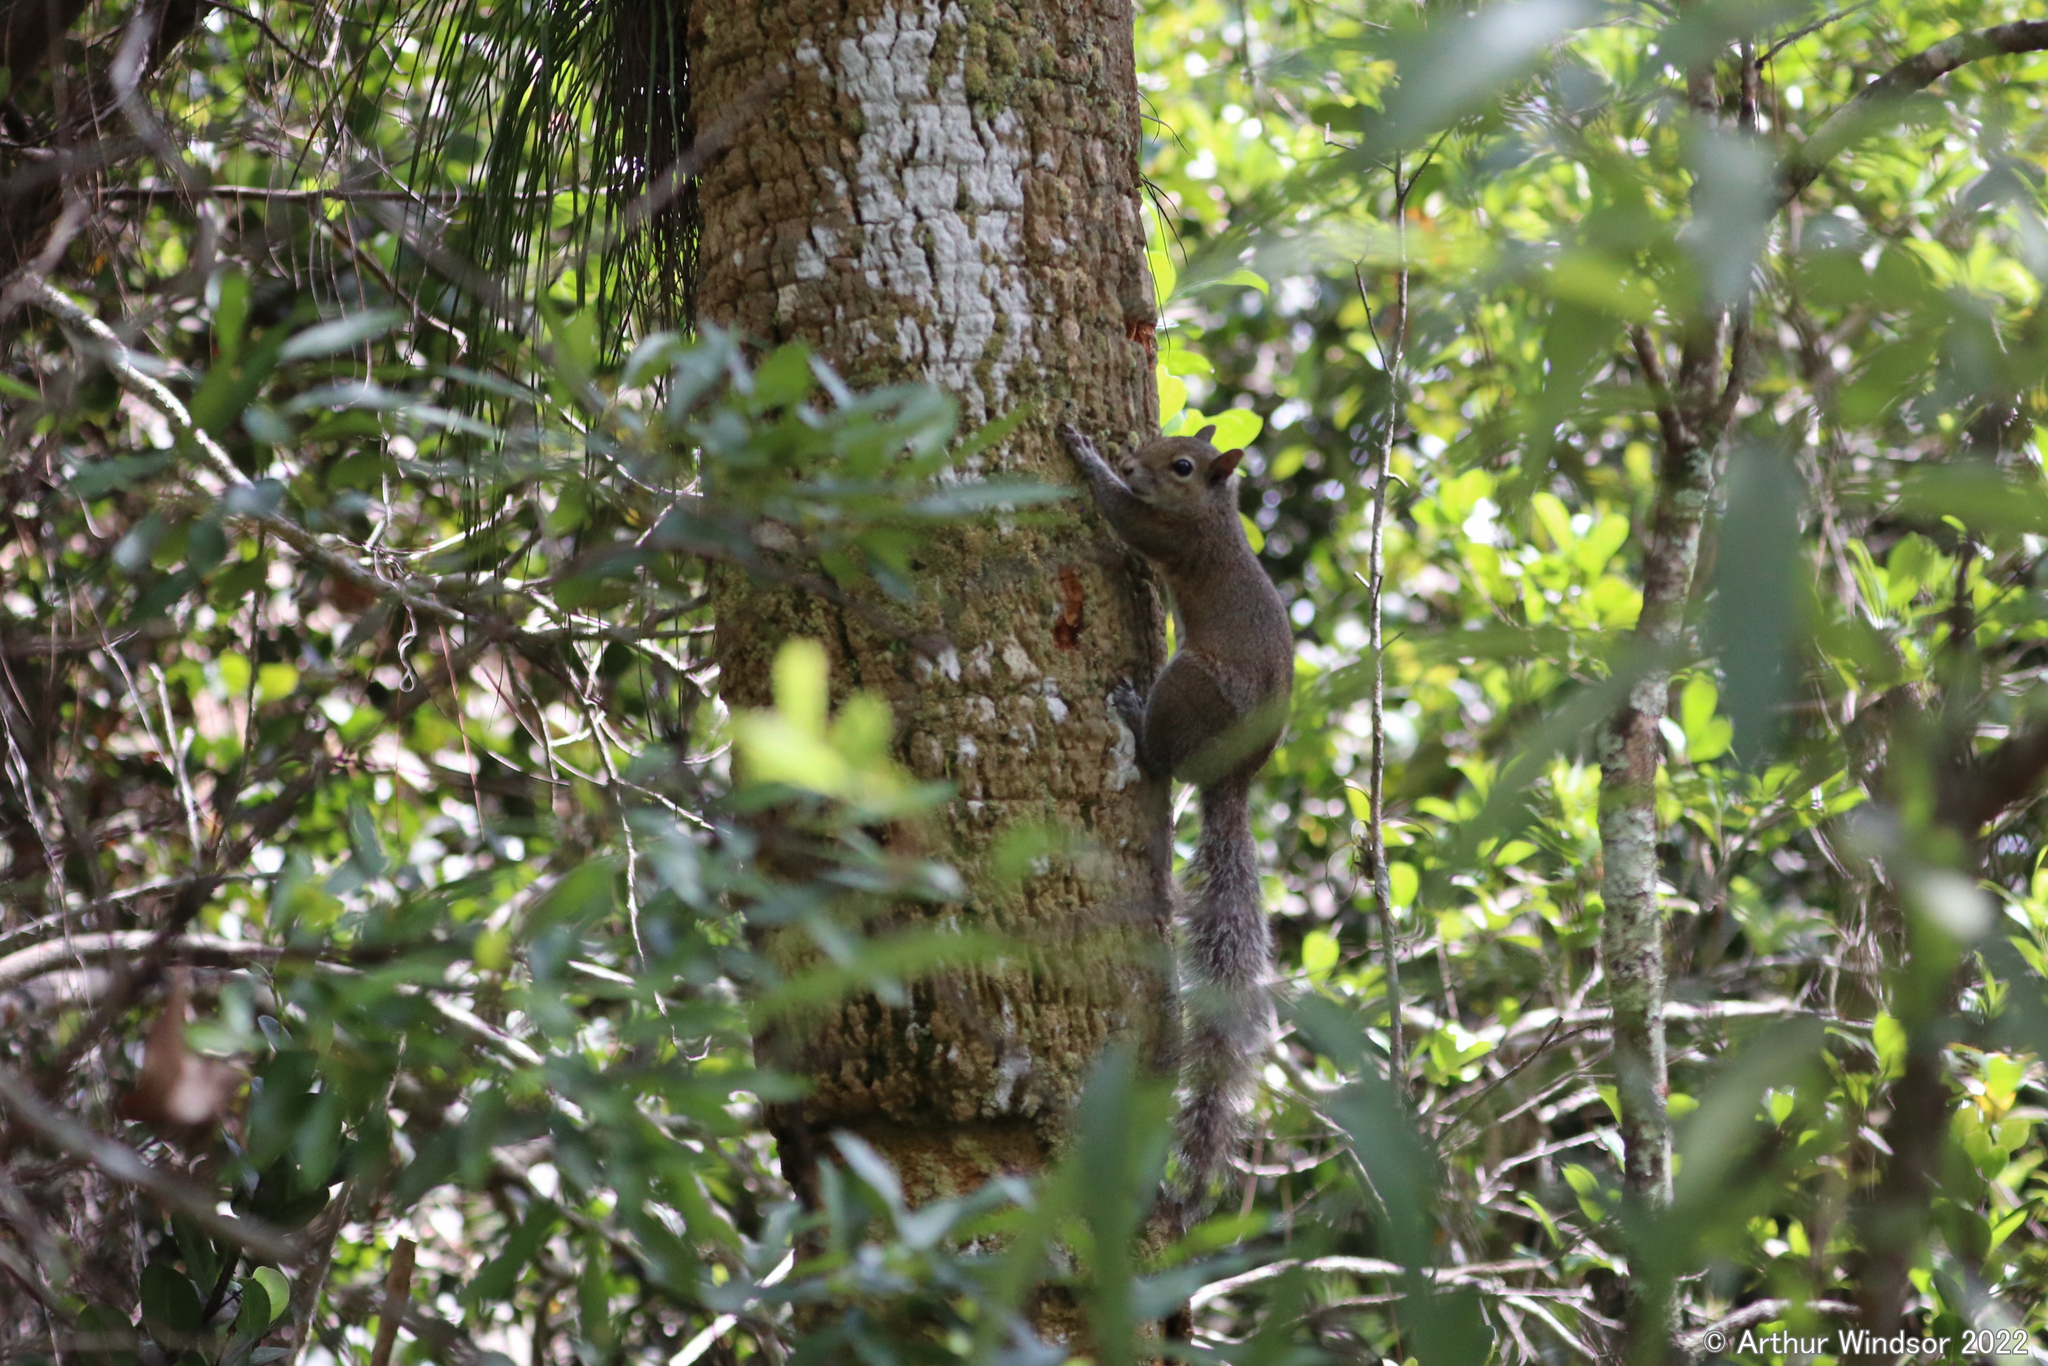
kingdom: Animalia
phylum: Chordata
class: Mammalia
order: Rodentia
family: Sciuridae
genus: Sciurus
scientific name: Sciurus carolinensis
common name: Eastern gray squirrel
